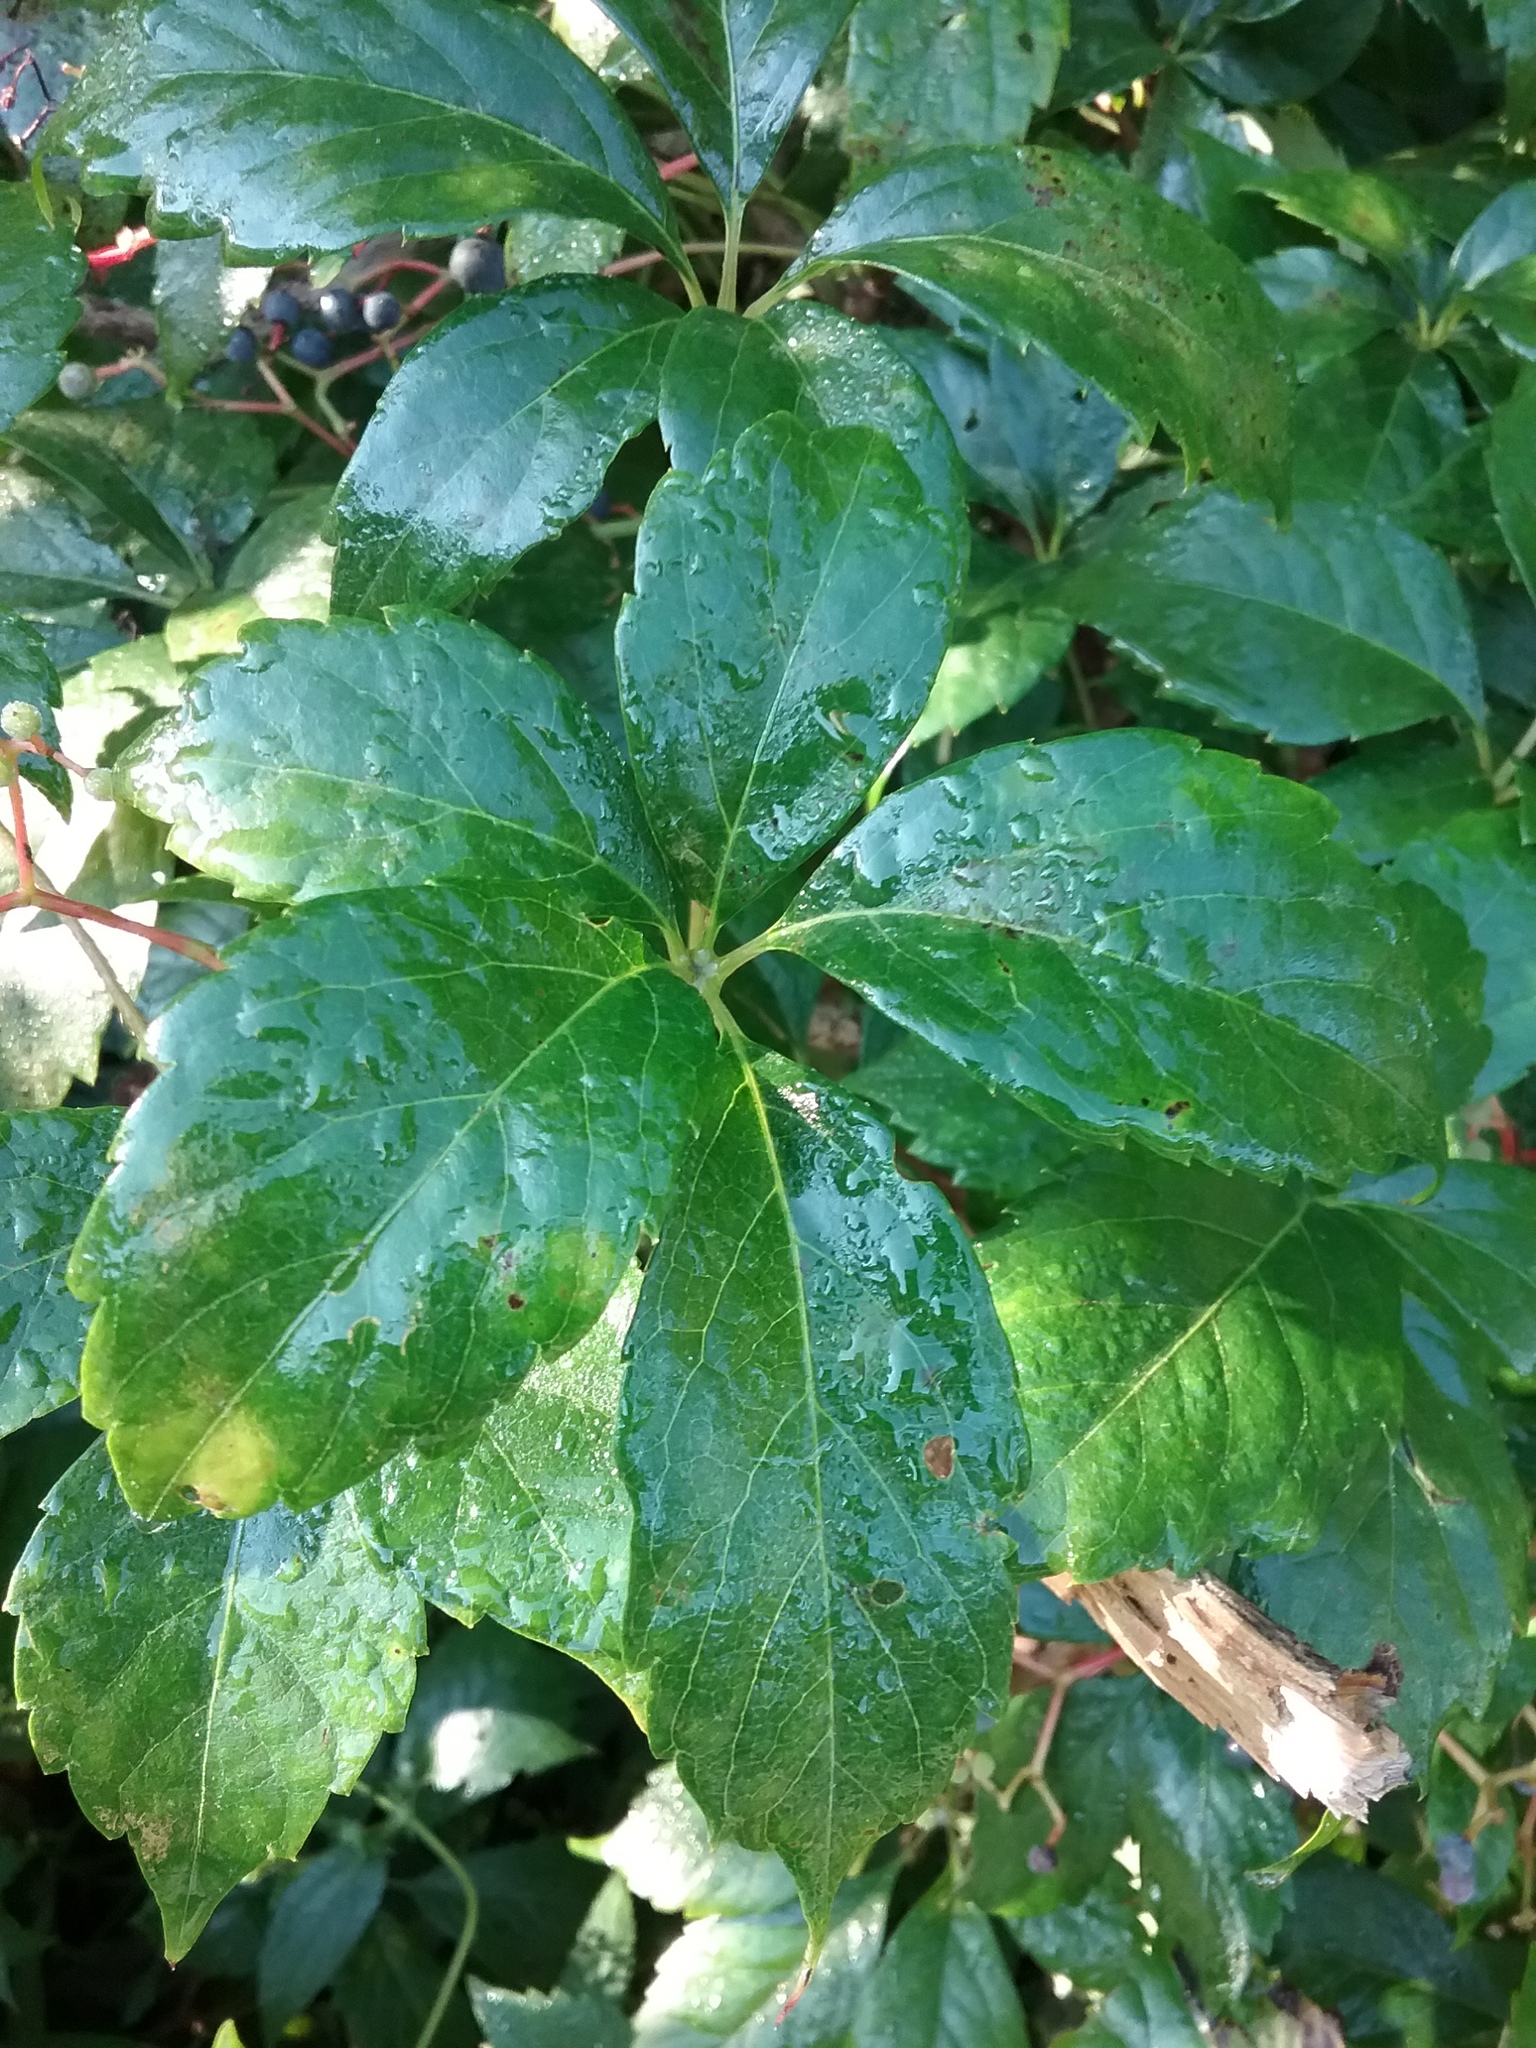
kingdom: Plantae
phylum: Tracheophyta
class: Magnoliopsida
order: Vitales
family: Vitaceae
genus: Parthenocissus
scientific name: Parthenocissus quinquefolia
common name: Virginia-creeper
